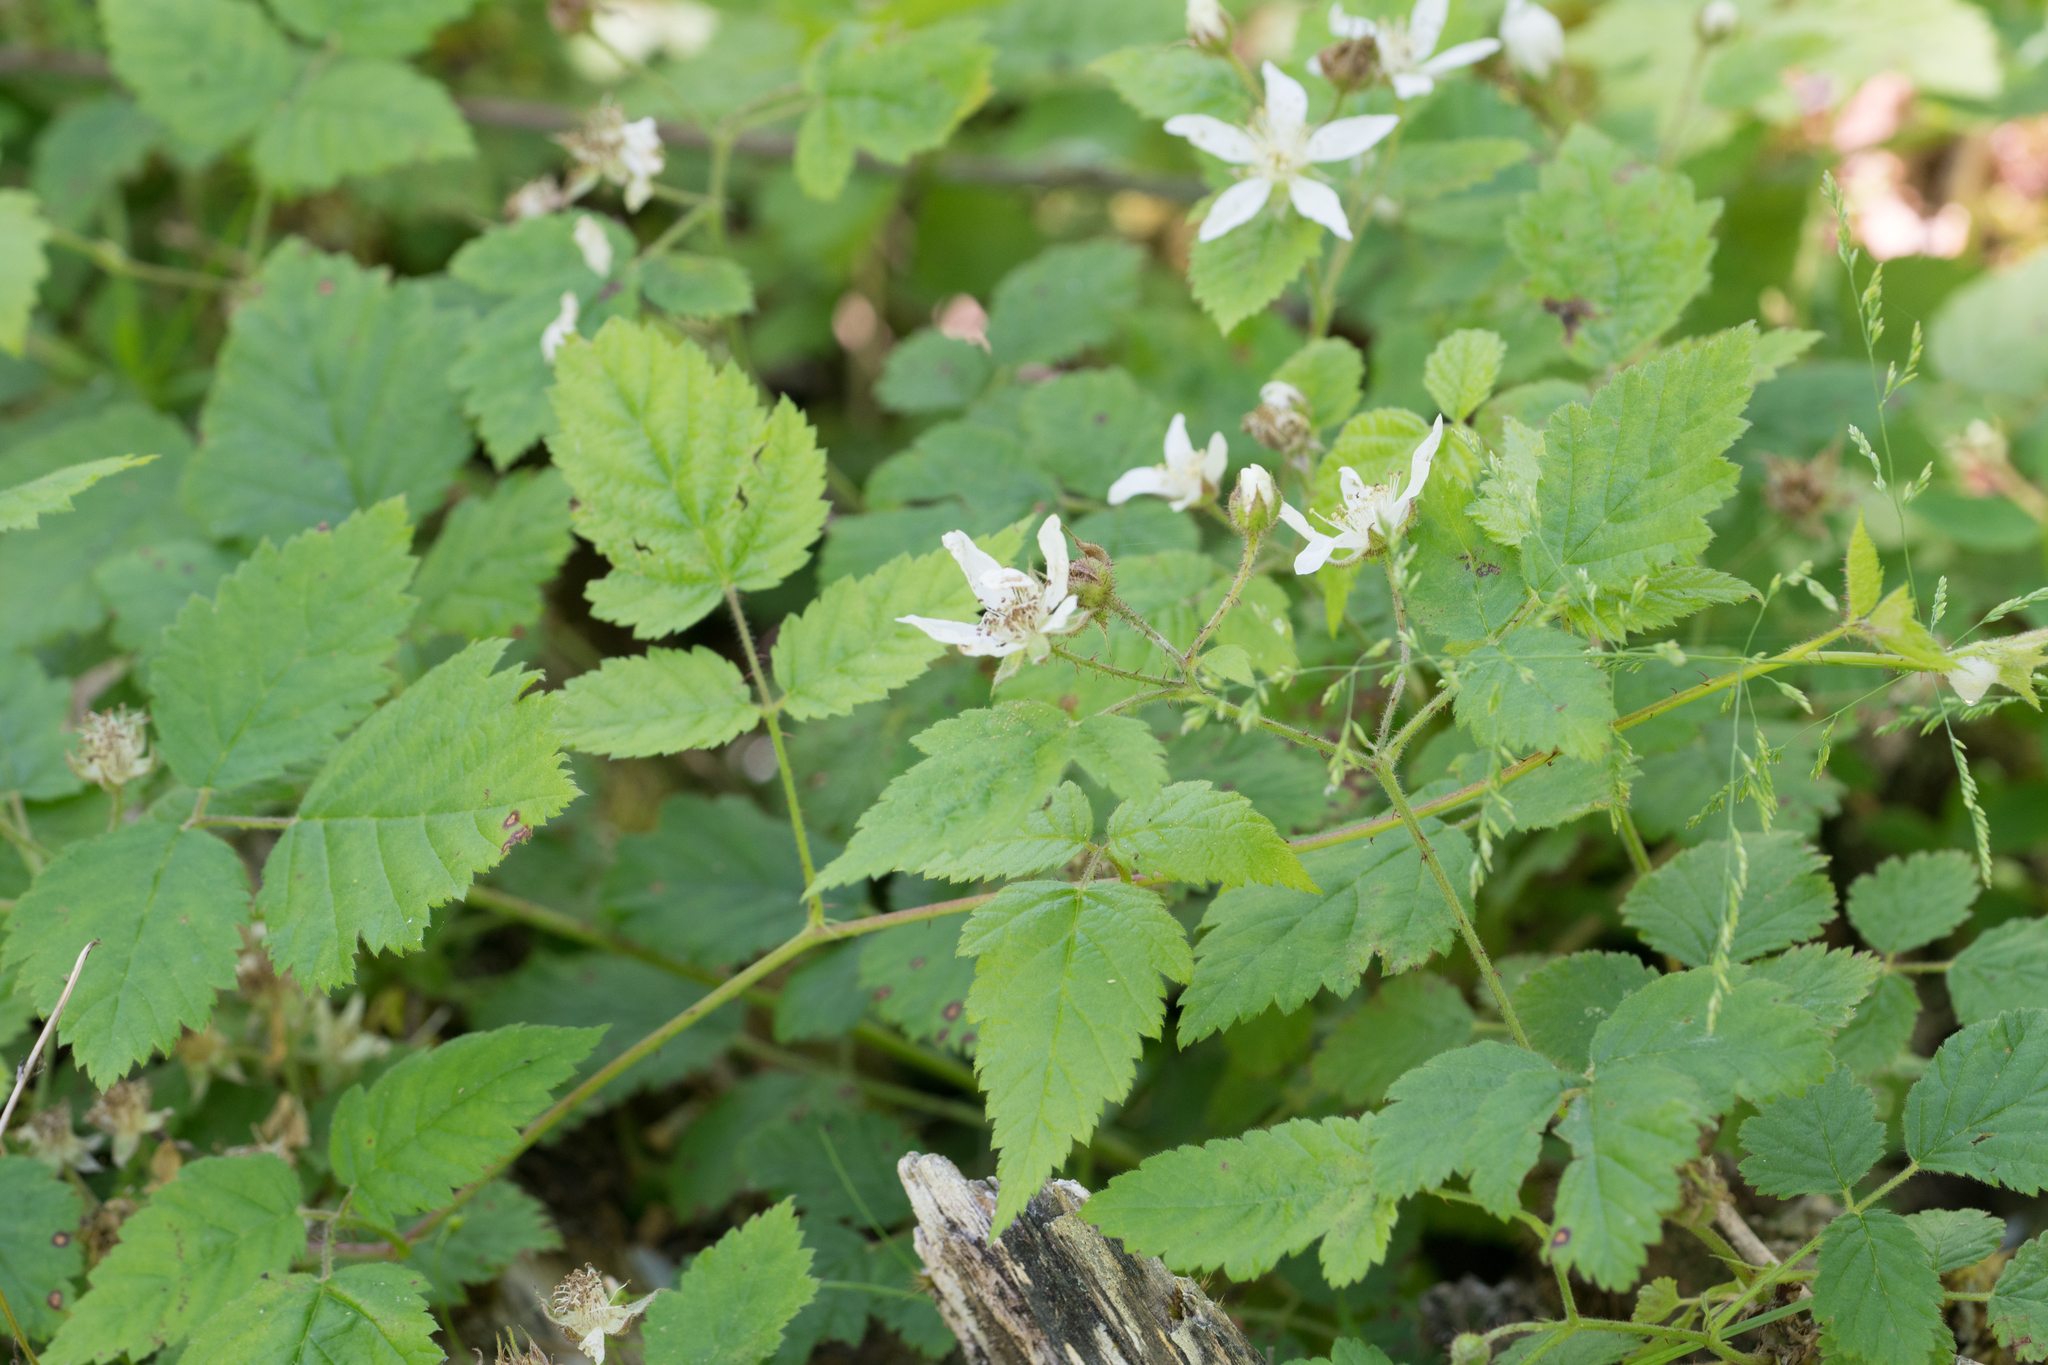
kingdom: Plantae
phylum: Tracheophyta
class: Magnoliopsida
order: Rosales
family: Rosaceae
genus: Rubus
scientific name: Rubus ursinus
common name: Pacific blackberry
